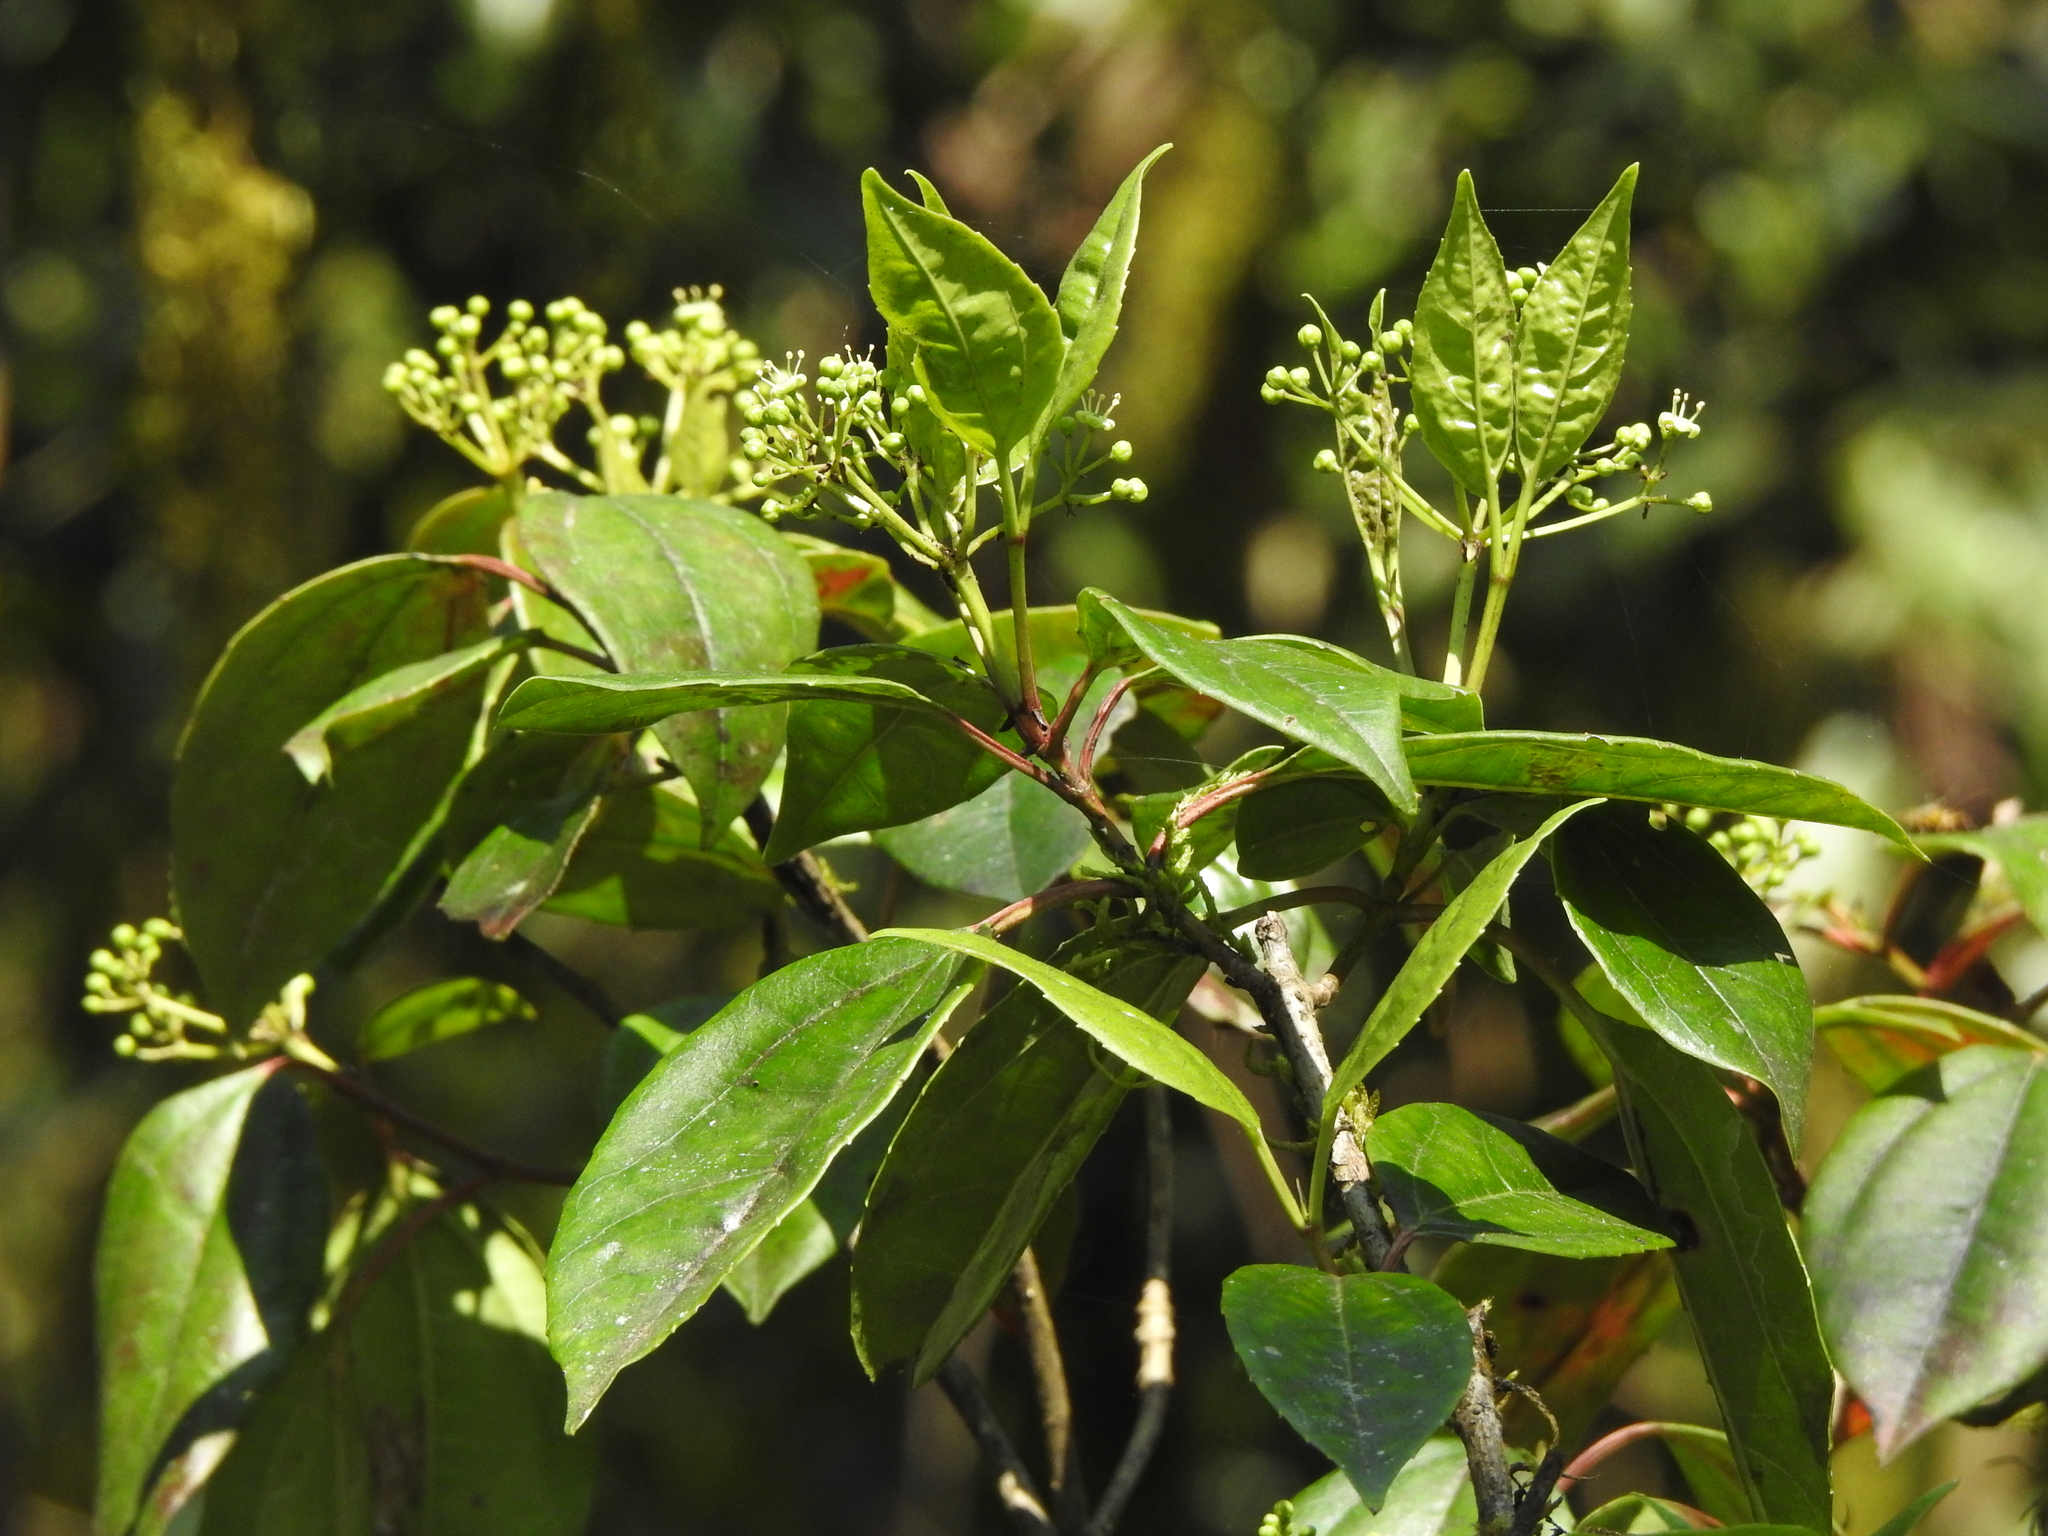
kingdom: Plantae
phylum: Tracheophyta
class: Magnoliopsida
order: Dipsacales
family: Viburnaceae
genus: Viburnum
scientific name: Viburnum propinquum
